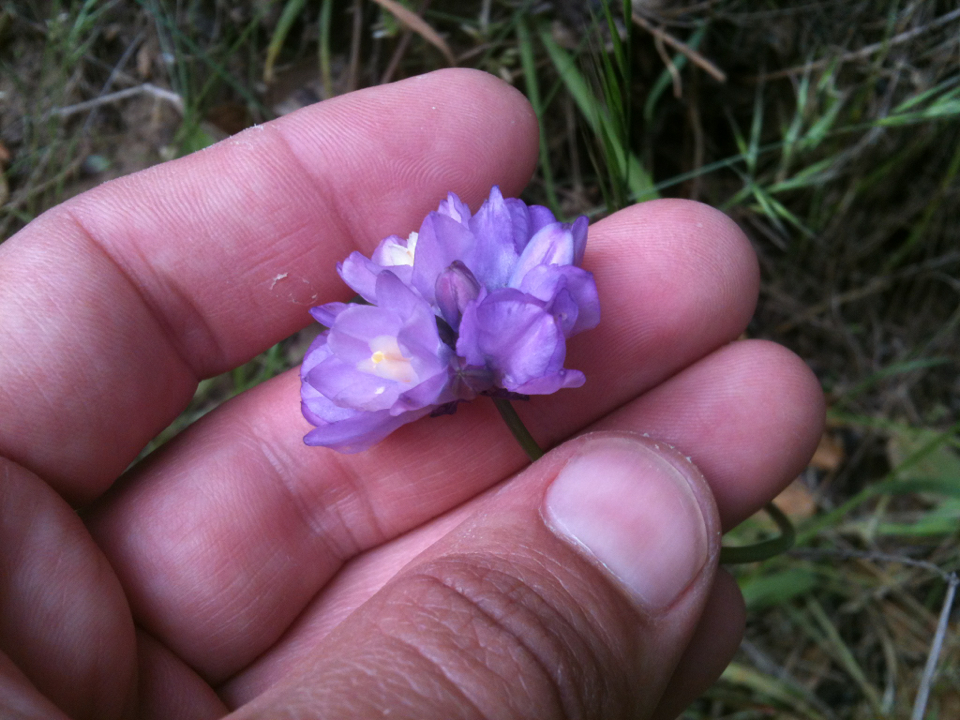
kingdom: Plantae
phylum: Tracheophyta
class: Liliopsida
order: Asparagales
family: Asparagaceae
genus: Dipterostemon
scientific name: Dipterostemon capitatus
